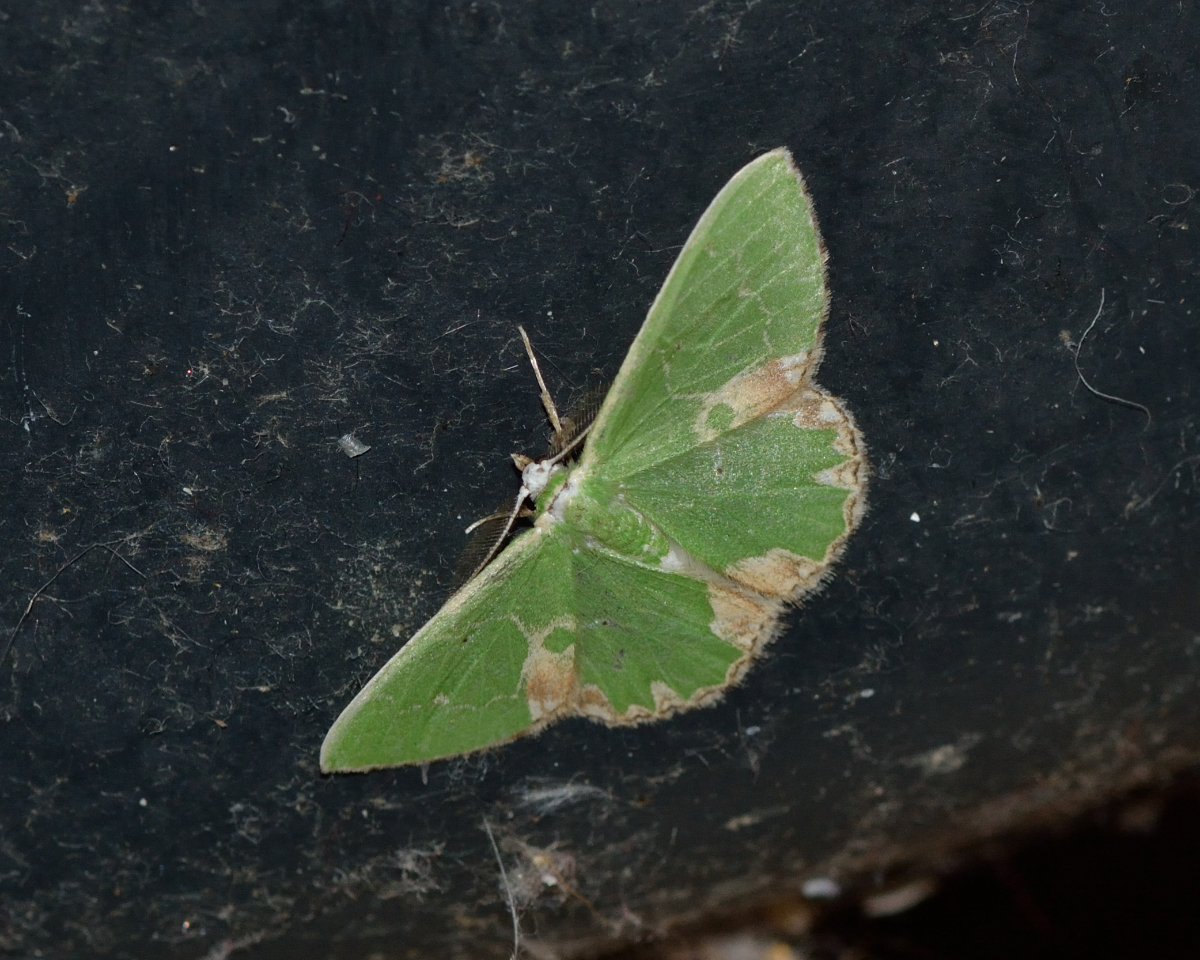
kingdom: Animalia
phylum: Arthropoda
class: Insecta
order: Lepidoptera
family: Geometridae
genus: Comibaena
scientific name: Comibaena bajularia
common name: Blotched emerald
